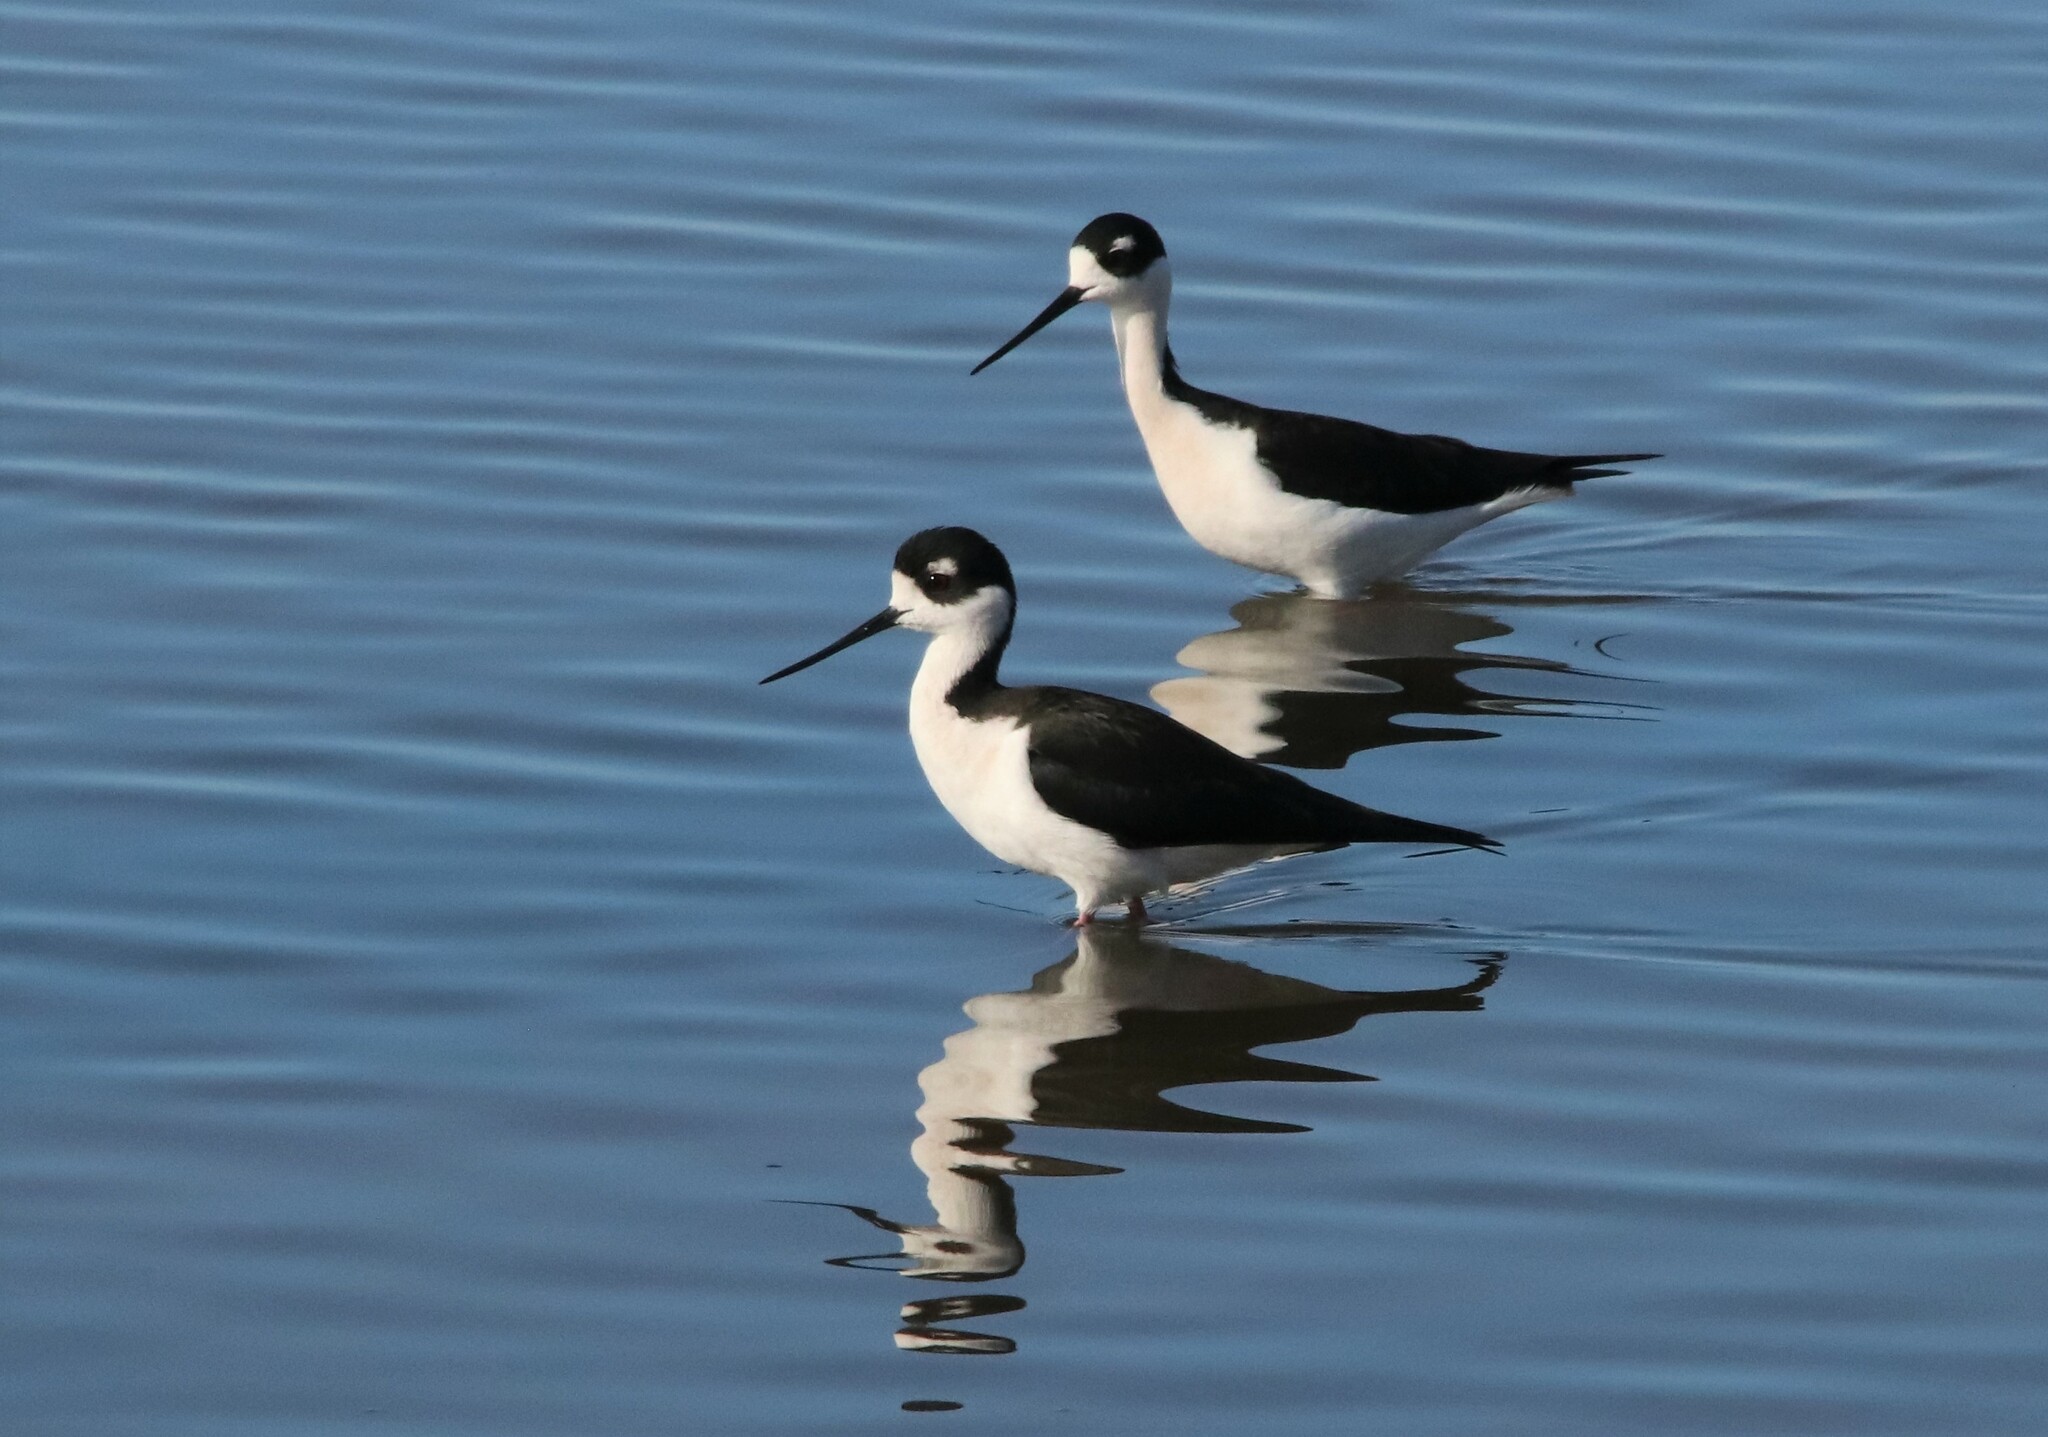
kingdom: Animalia
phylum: Chordata
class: Aves
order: Charadriiformes
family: Recurvirostridae
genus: Himantopus
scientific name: Himantopus mexicanus
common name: Black-necked stilt
